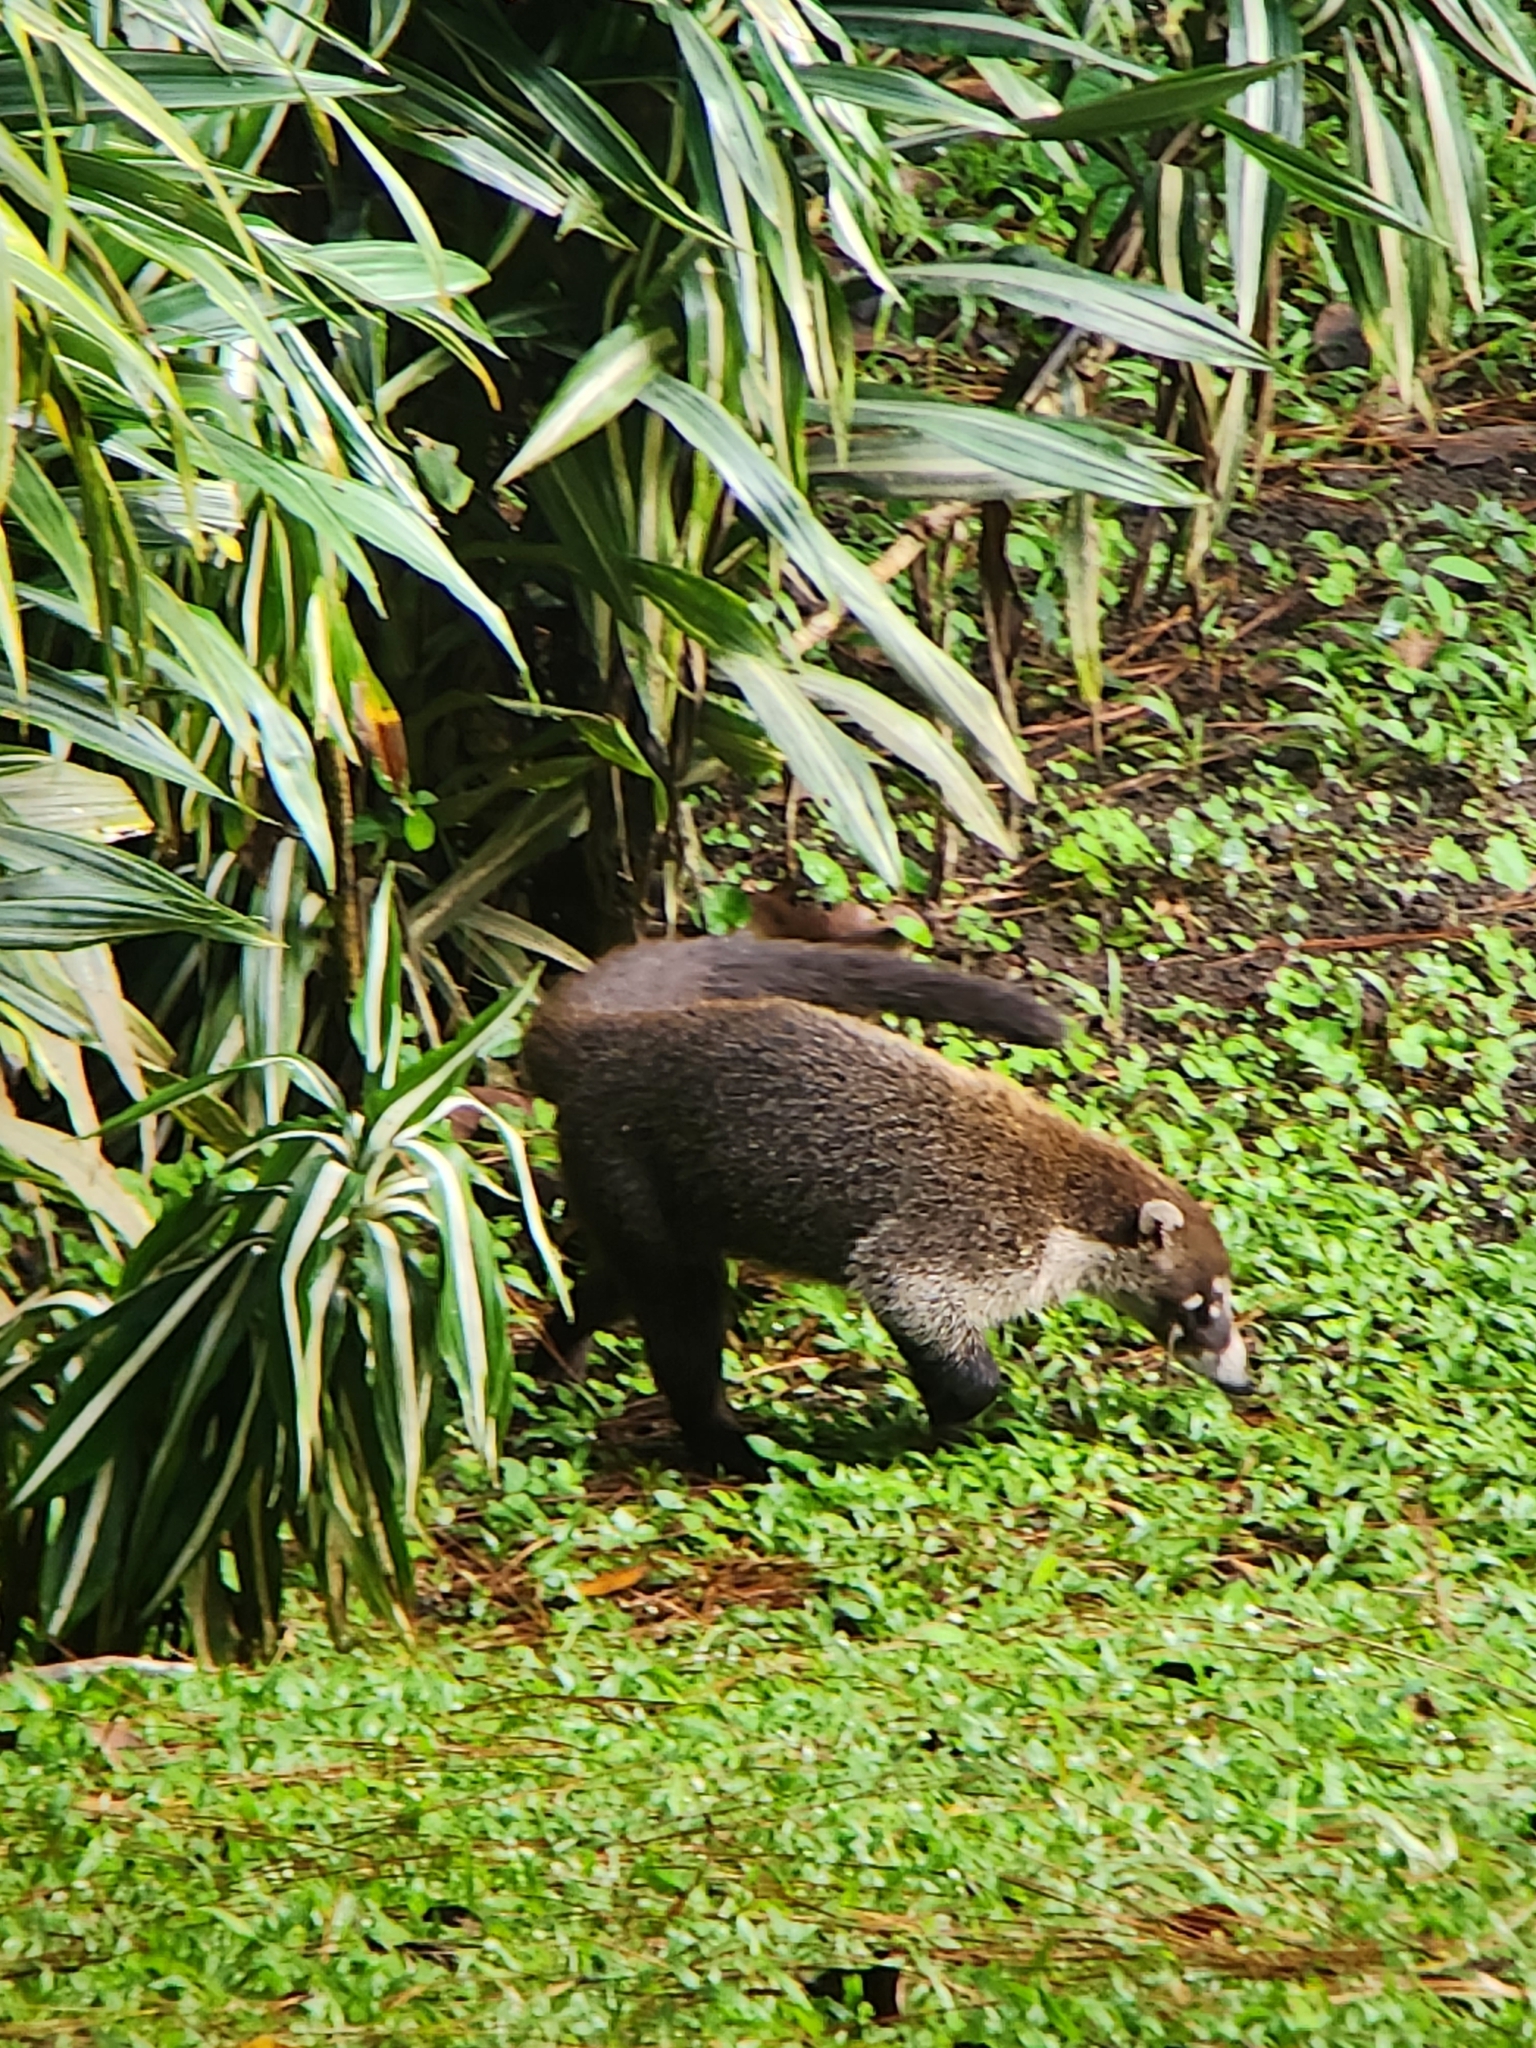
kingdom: Animalia
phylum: Chordata
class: Mammalia
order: Carnivora
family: Procyonidae
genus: Nasua
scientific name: Nasua narica
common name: White-nosed coati
